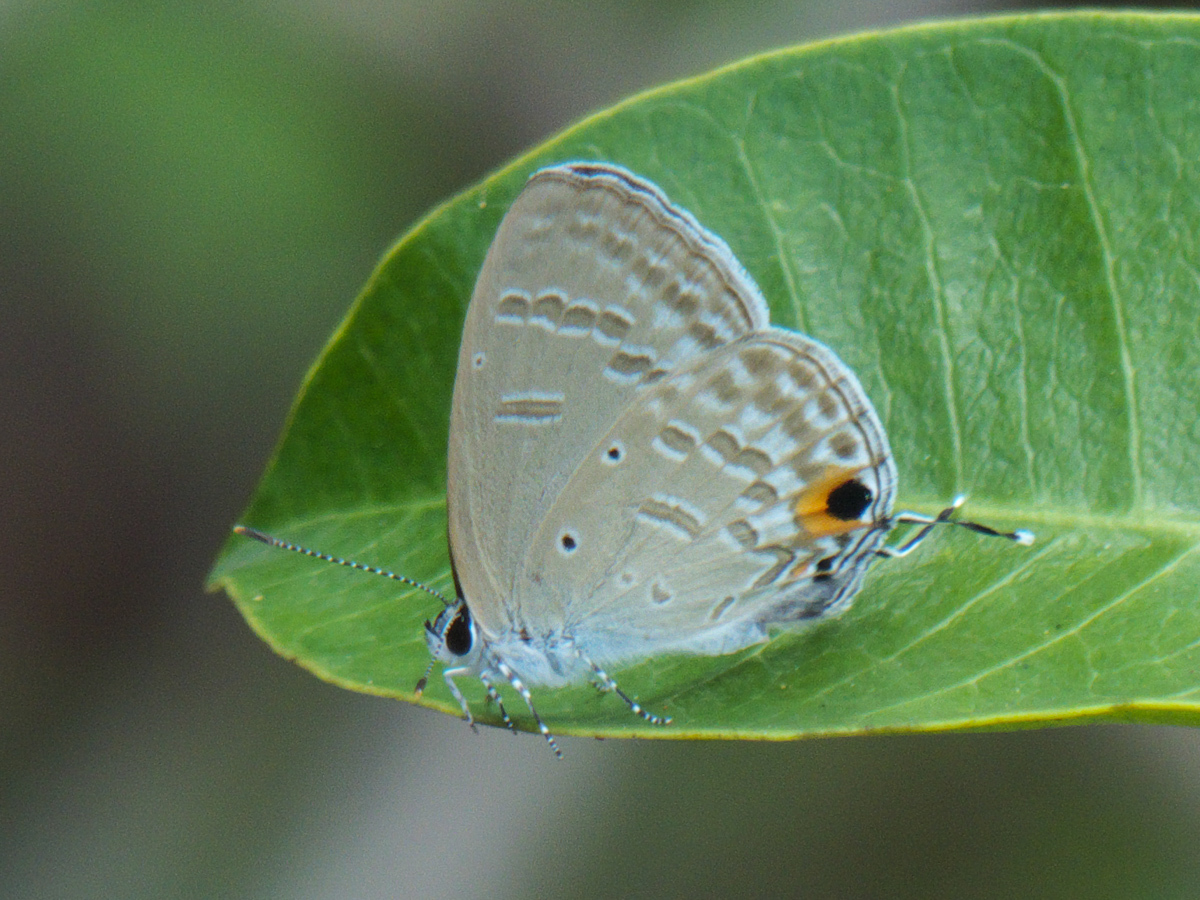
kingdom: Animalia
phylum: Arthropoda
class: Insecta
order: Lepidoptera
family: Lycaenidae
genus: Catochrysops
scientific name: Catochrysops strabo
